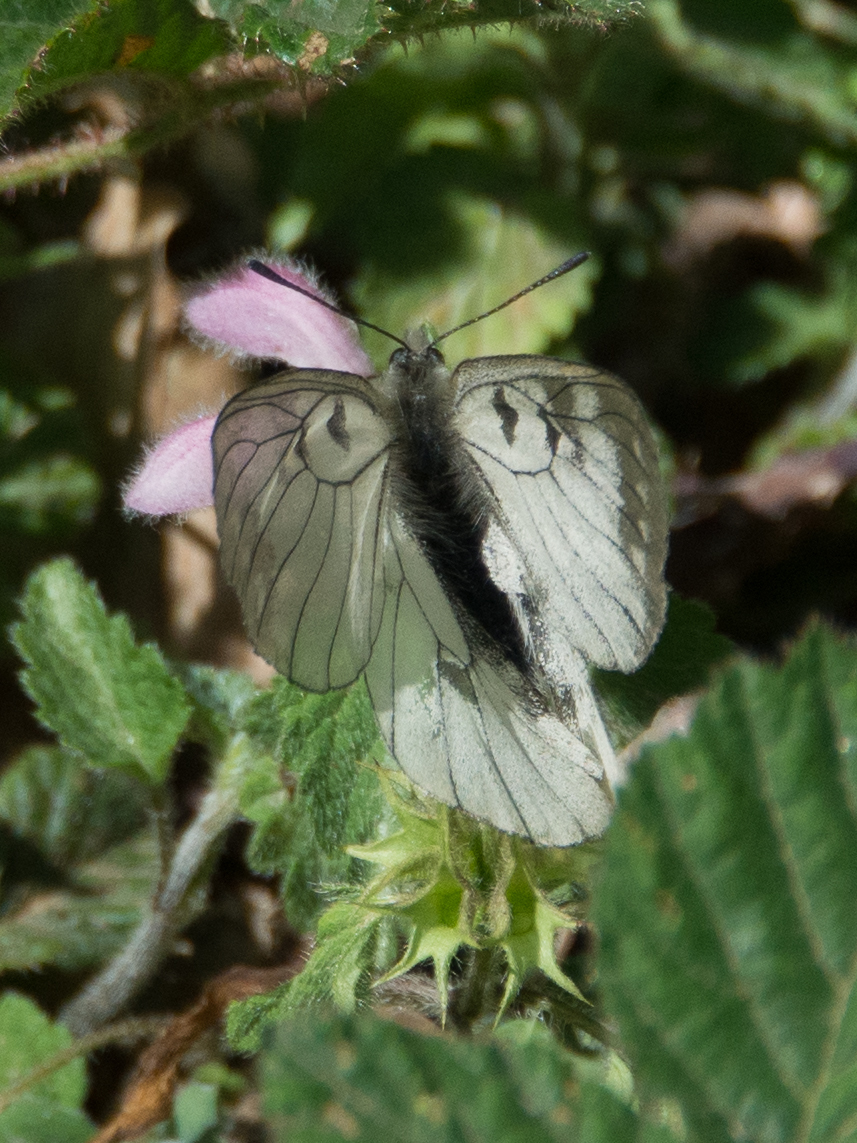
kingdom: Animalia
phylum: Arthropoda
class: Insecta
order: Lepidoptera
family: Papilionidae
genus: Parnassius
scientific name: Parnassius mnemosyne
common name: Clouded apollo
